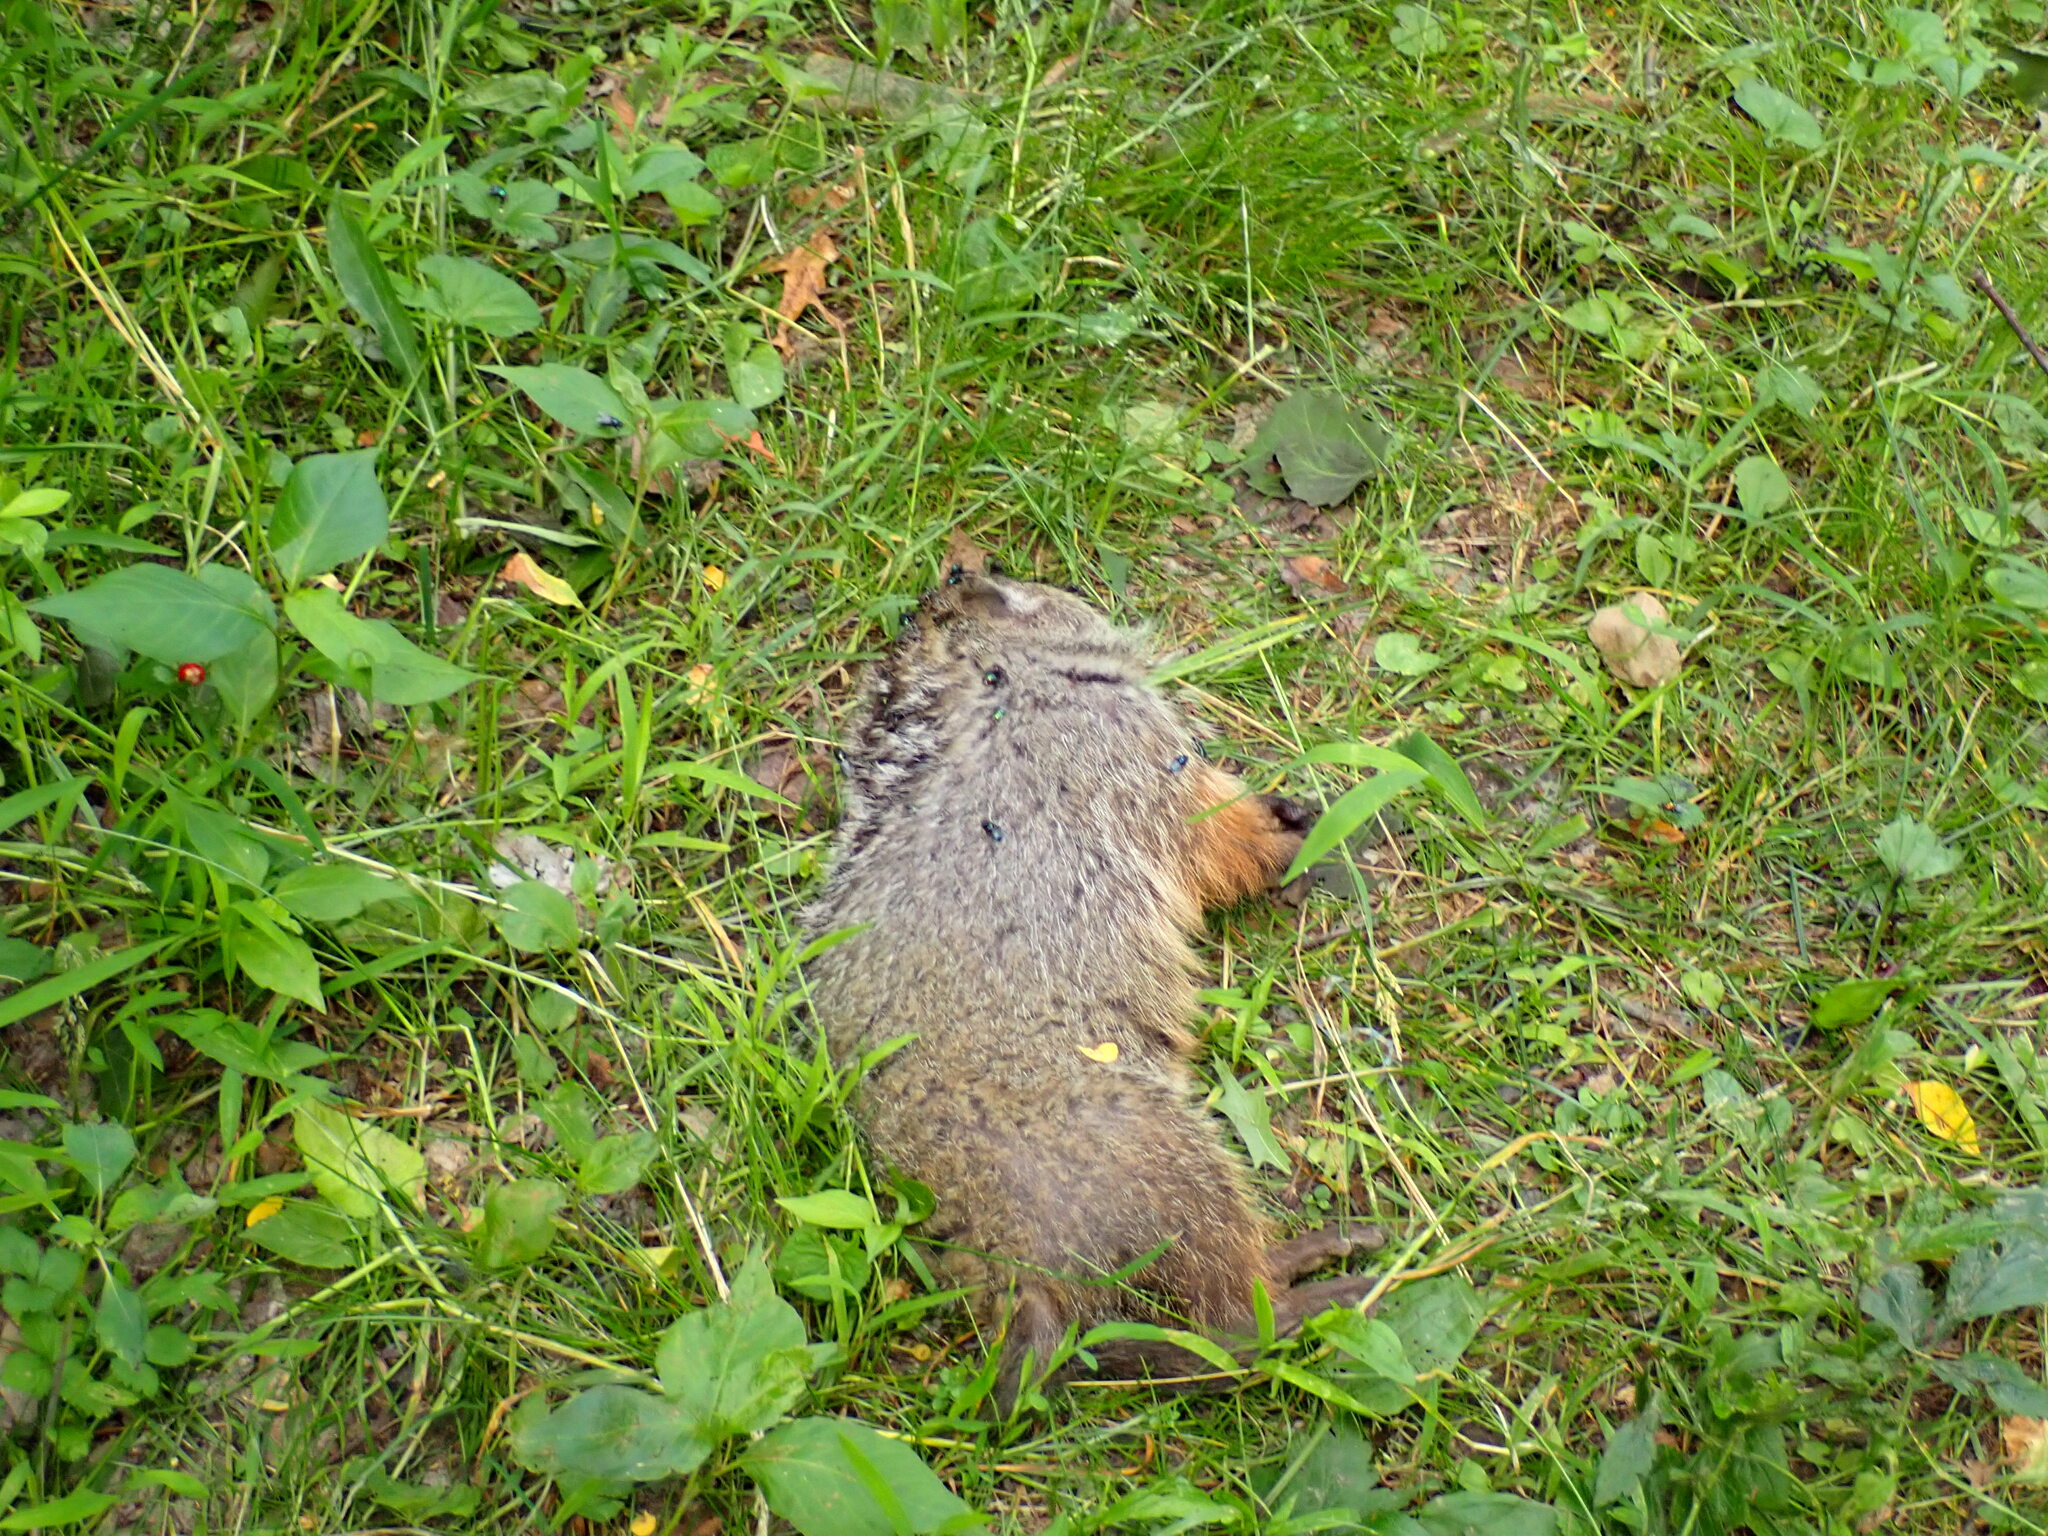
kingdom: Animalia
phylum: Chordata
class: Mammalia
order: Rodentia
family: Sciuridae
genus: Marmota
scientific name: Marmota monax
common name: Groundhog
